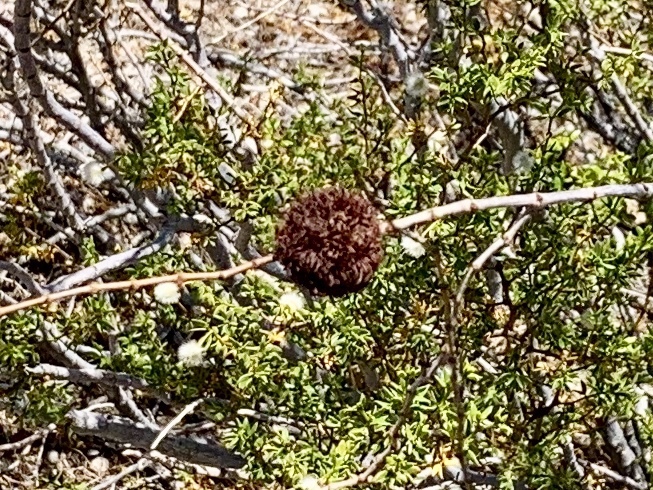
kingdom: Animalia
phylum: Arthropoda
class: Insecta
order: Diptera
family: Cecidomyiidae
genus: Asphondylia
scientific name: Asphondylia auripila
